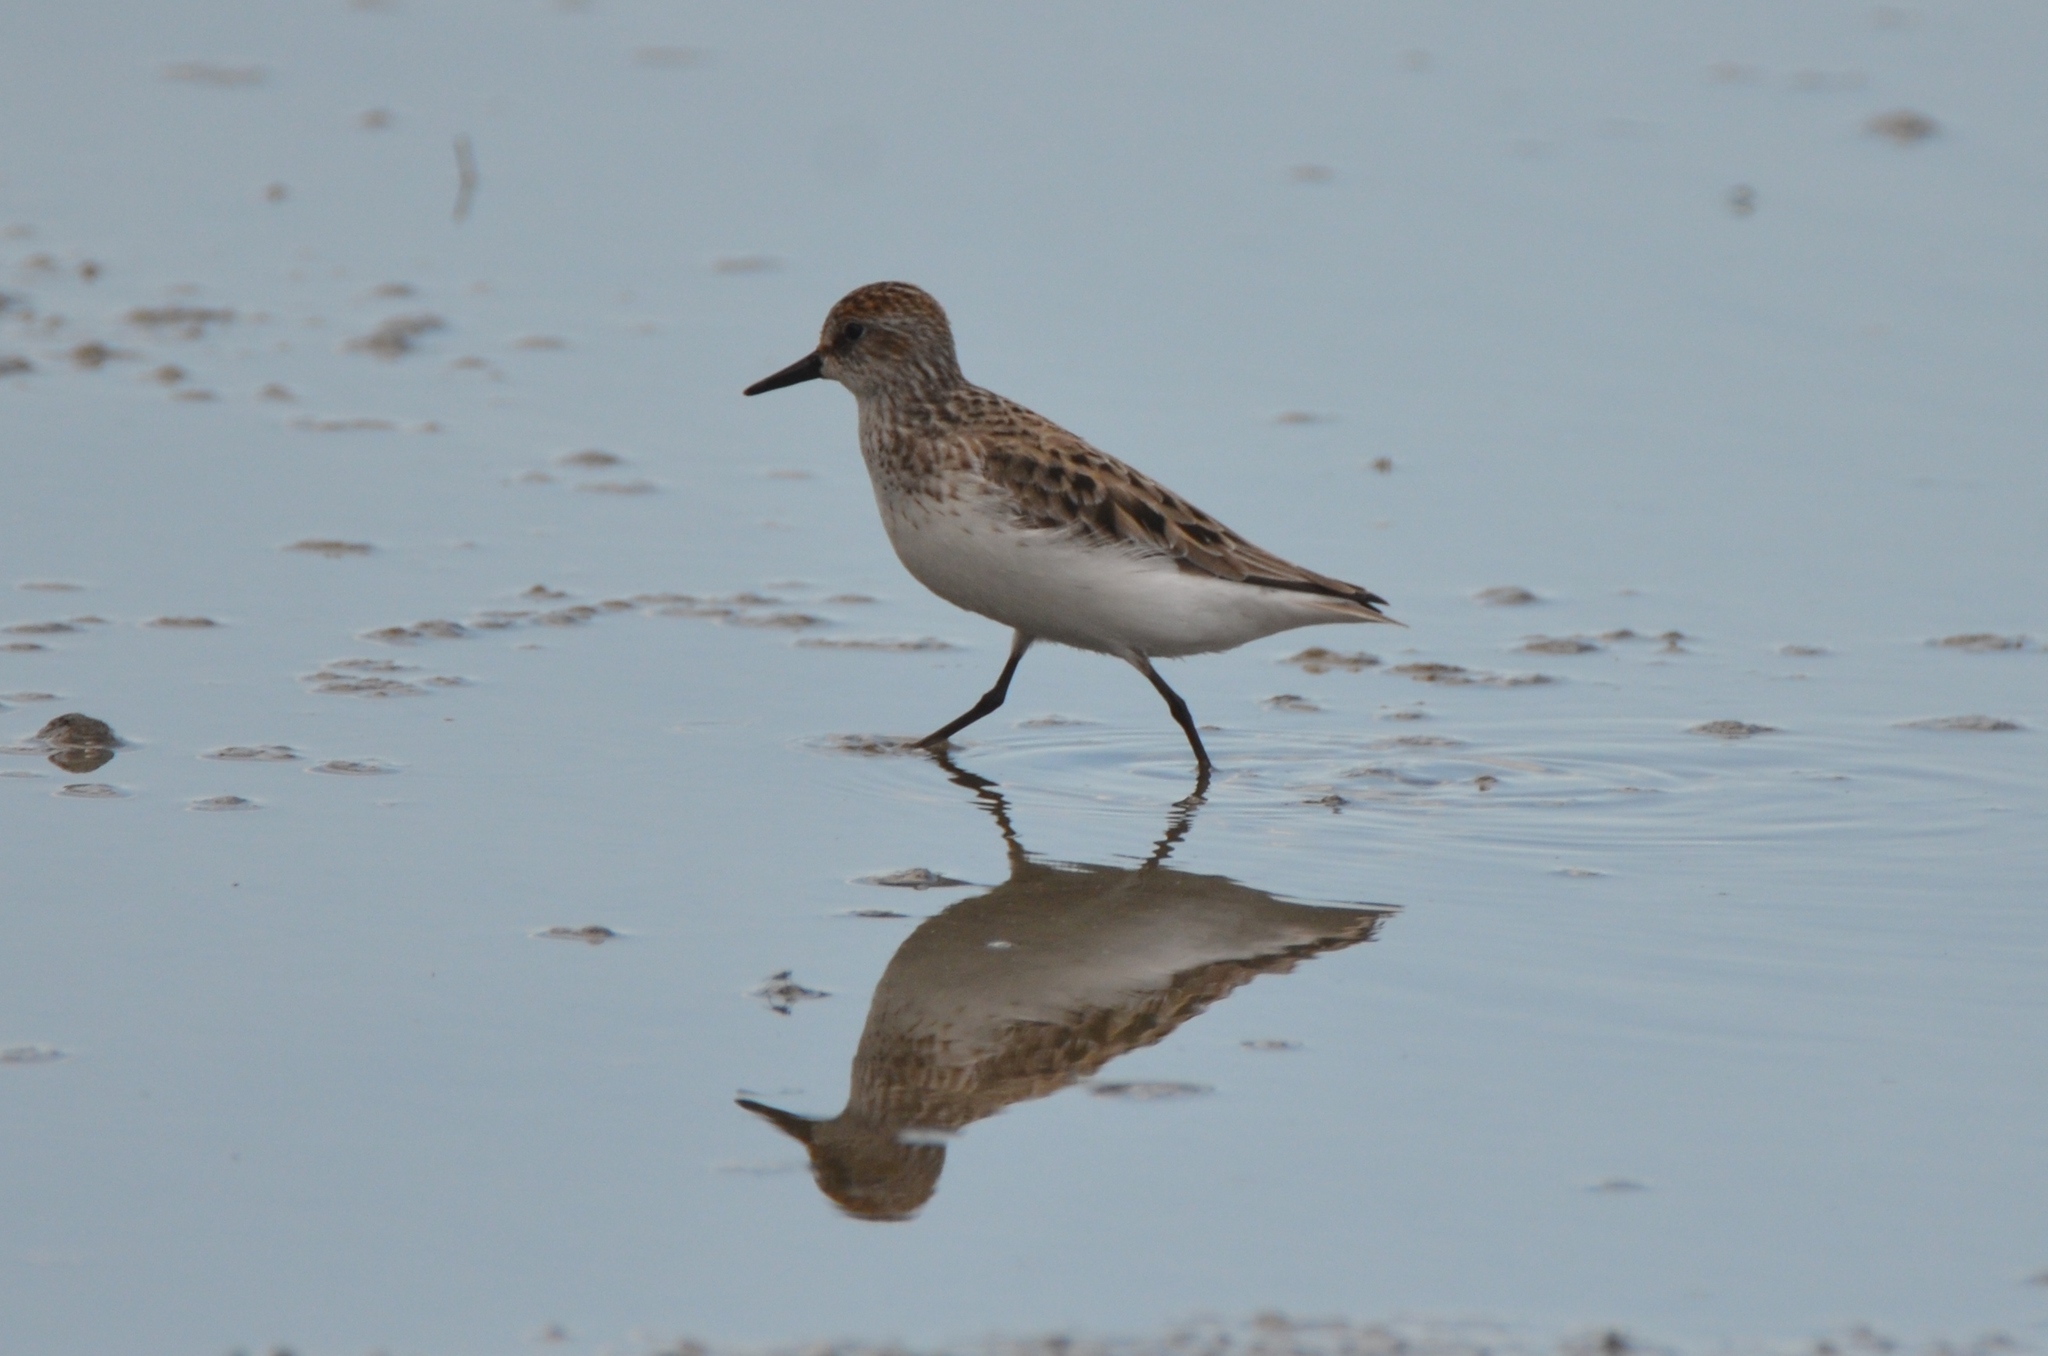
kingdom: Animalia
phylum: Chordata
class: Aves
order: Charadriiformes
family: Scolopacidae
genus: Calidris
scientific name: Calidris pusilla
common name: Semipalmated sandpiper
